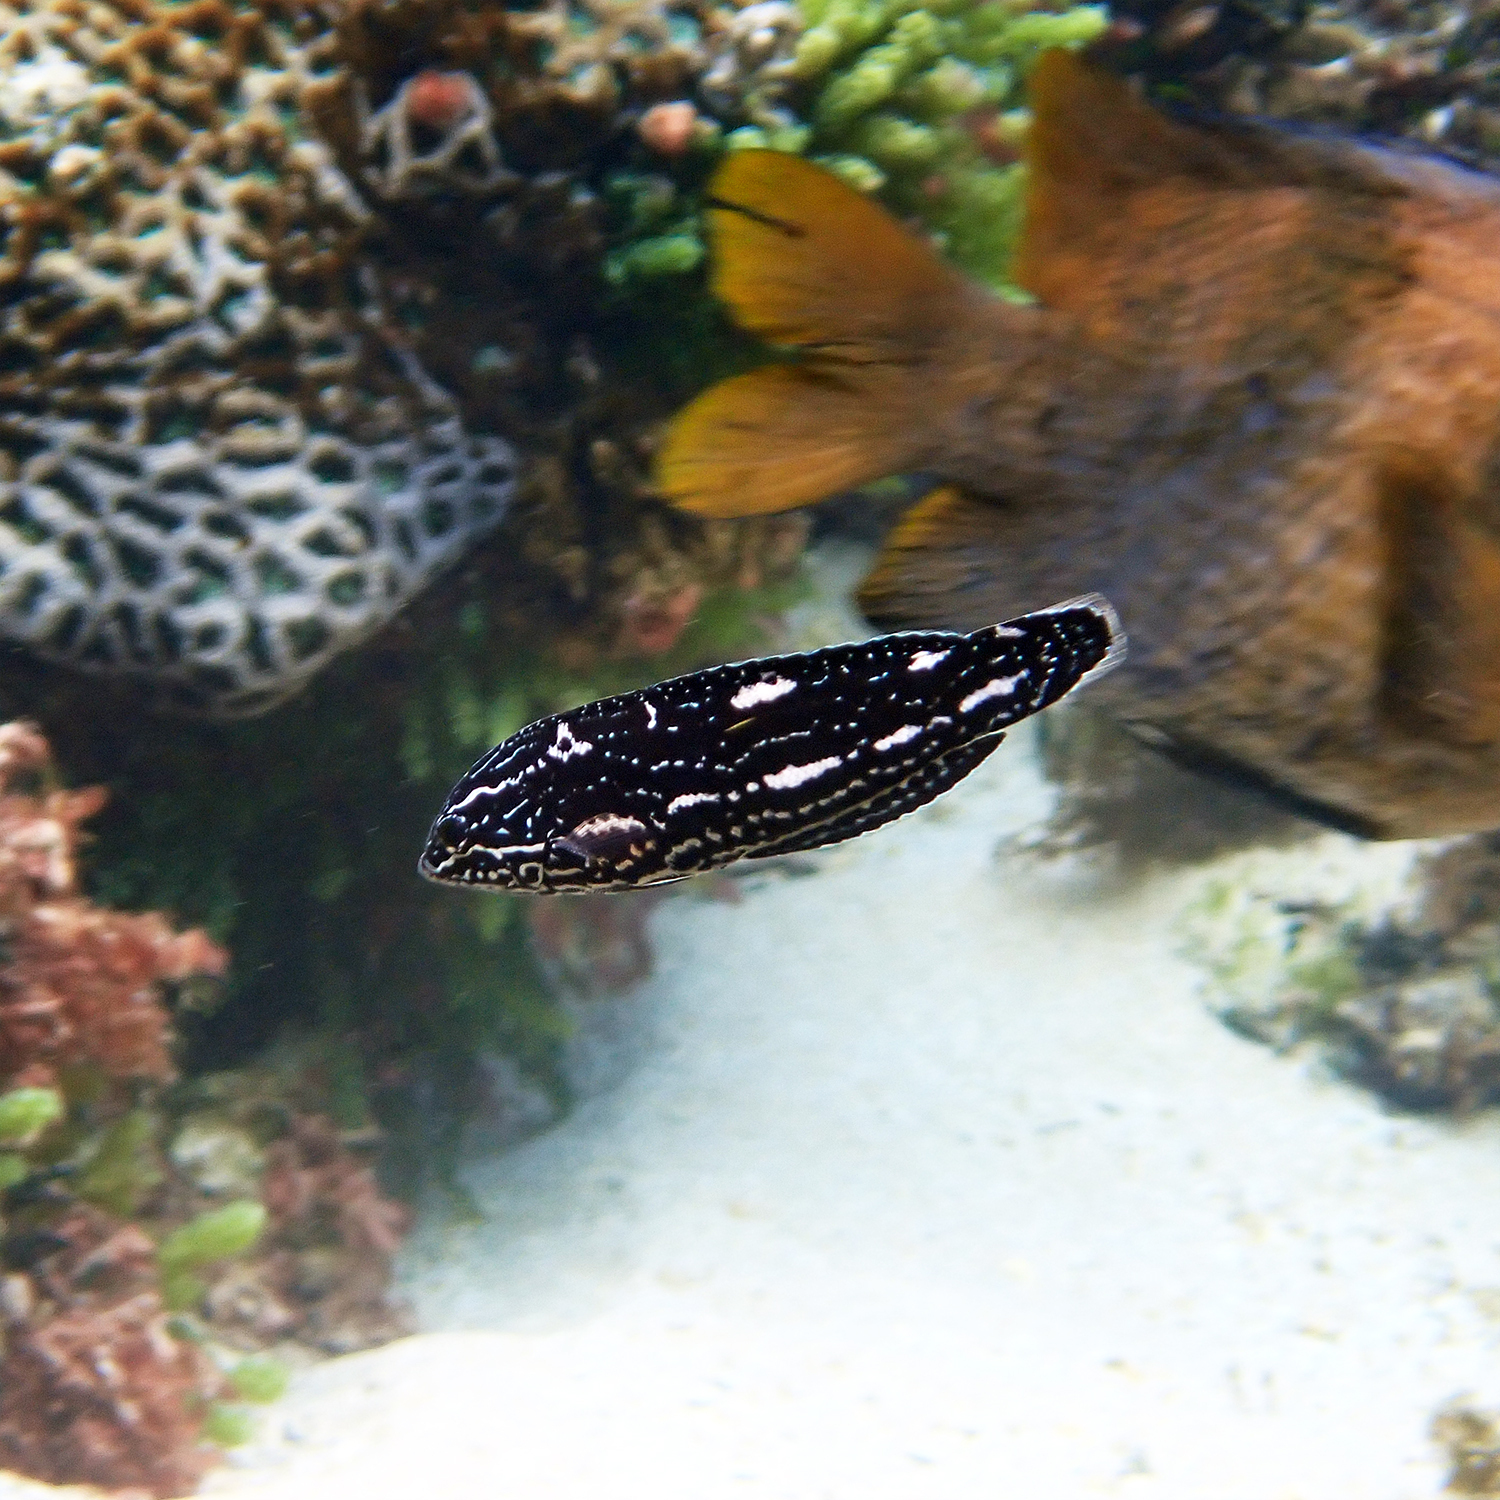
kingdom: Animalia
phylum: Chordata
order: Perciformes
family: Labridae
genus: Coris
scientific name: Coris bulbifrons
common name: Doubleheader
